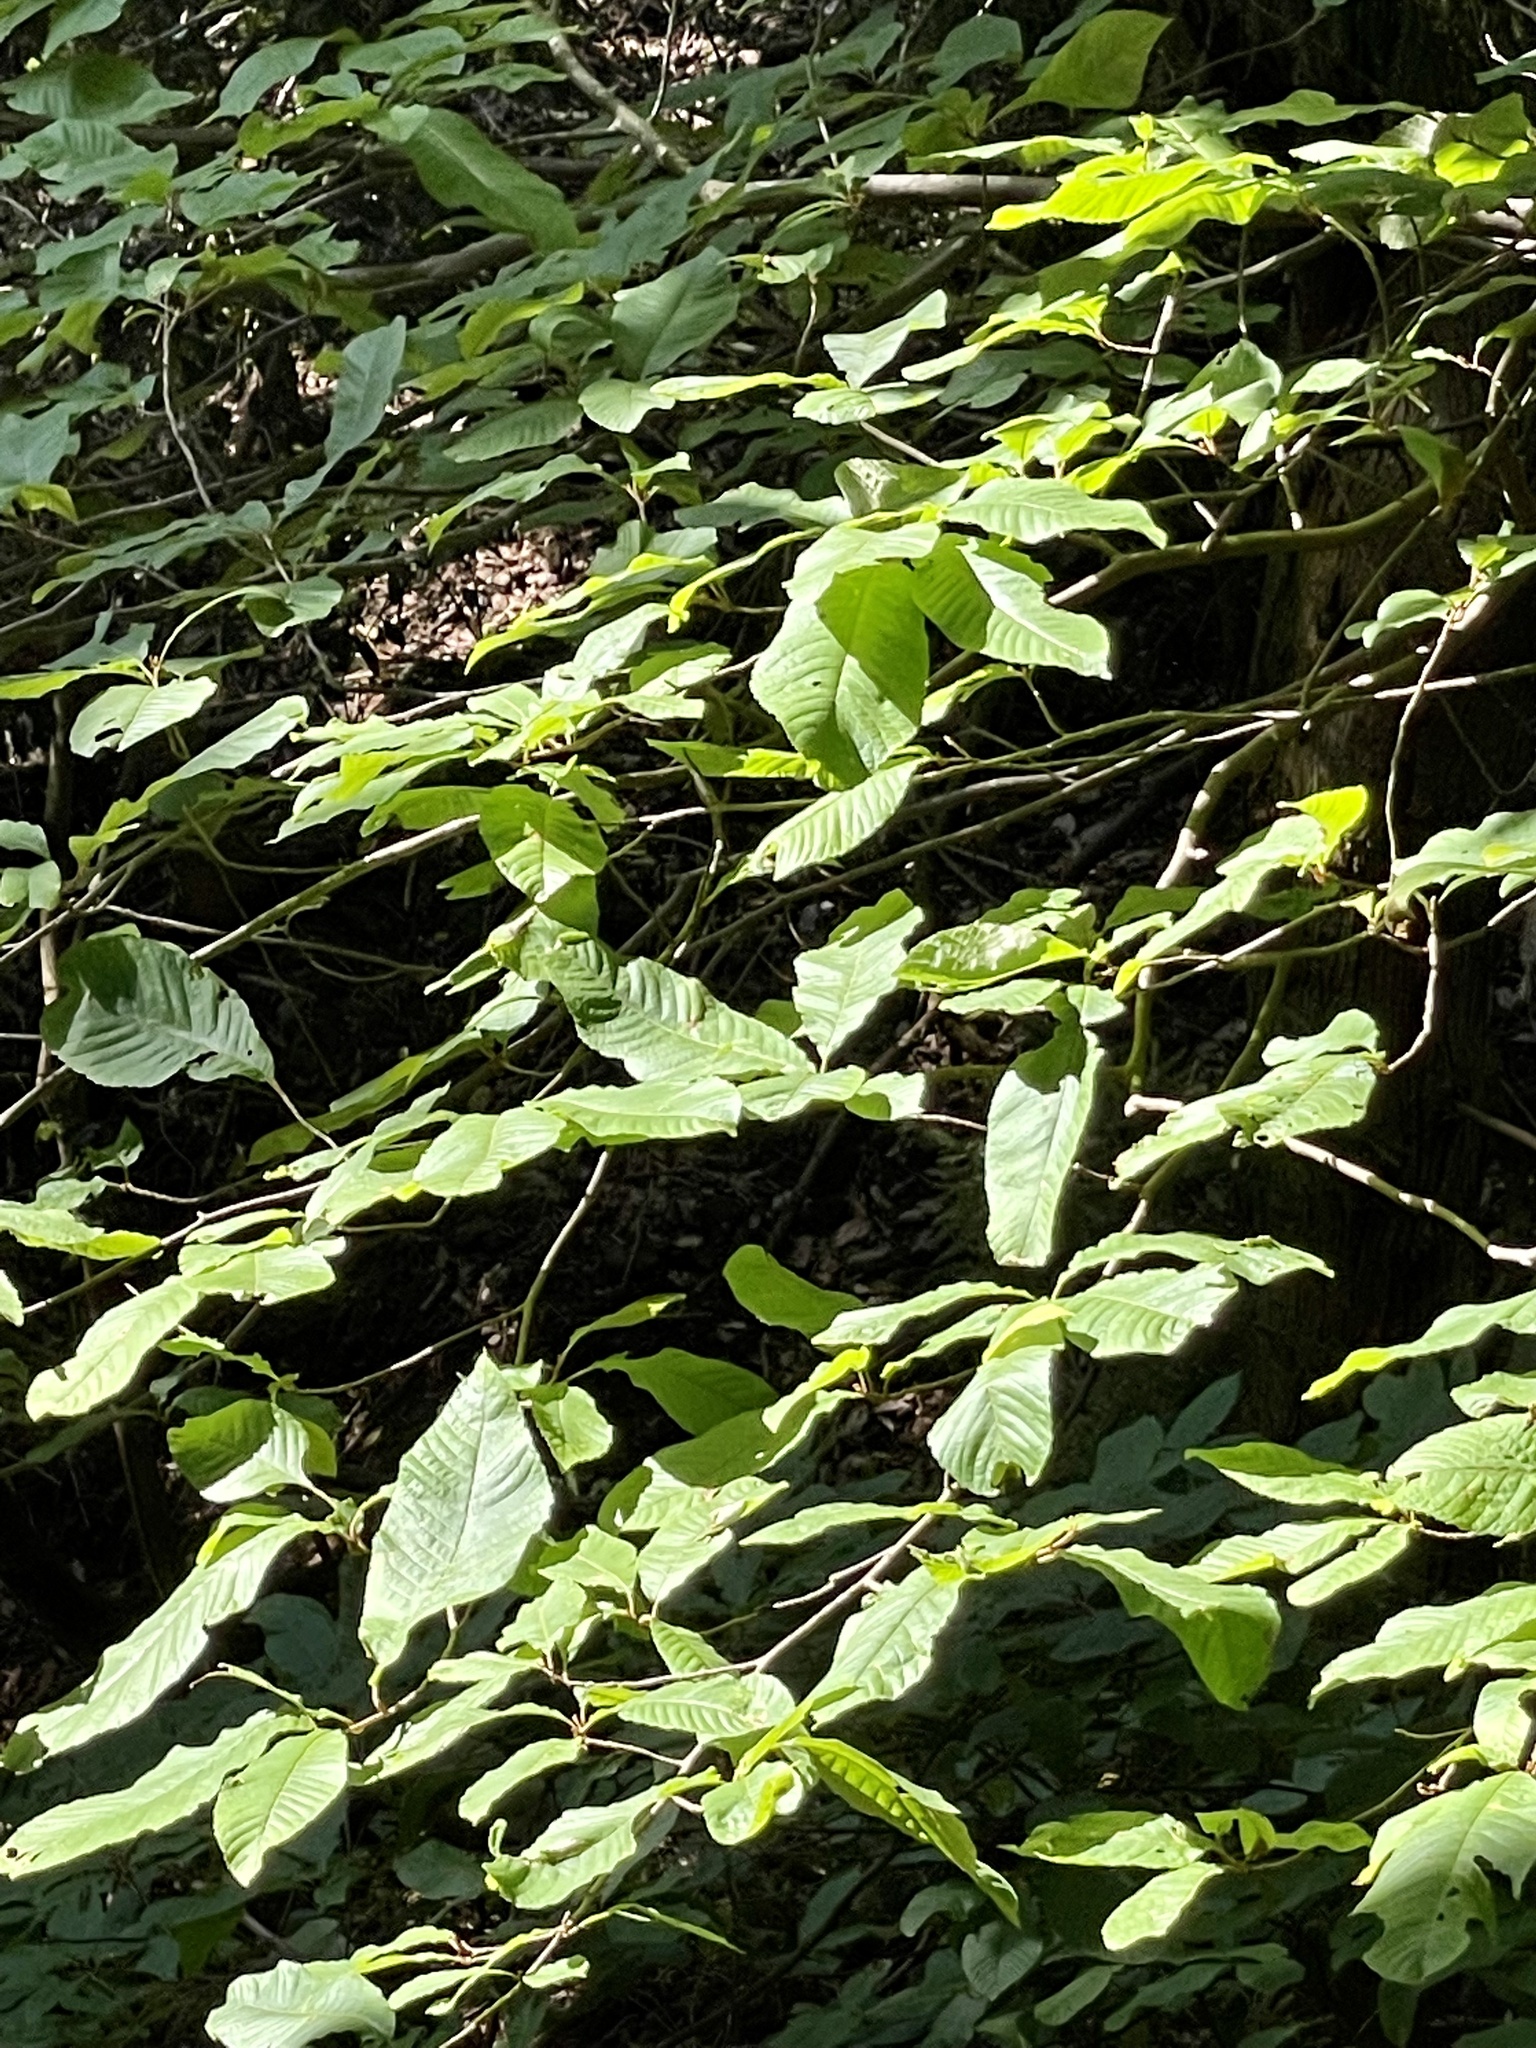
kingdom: Plantae
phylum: Tracheophyta
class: Magnoliopsida
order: Proteales
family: Sabiaceae
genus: Meliosma
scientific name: Meliosma myriantha
